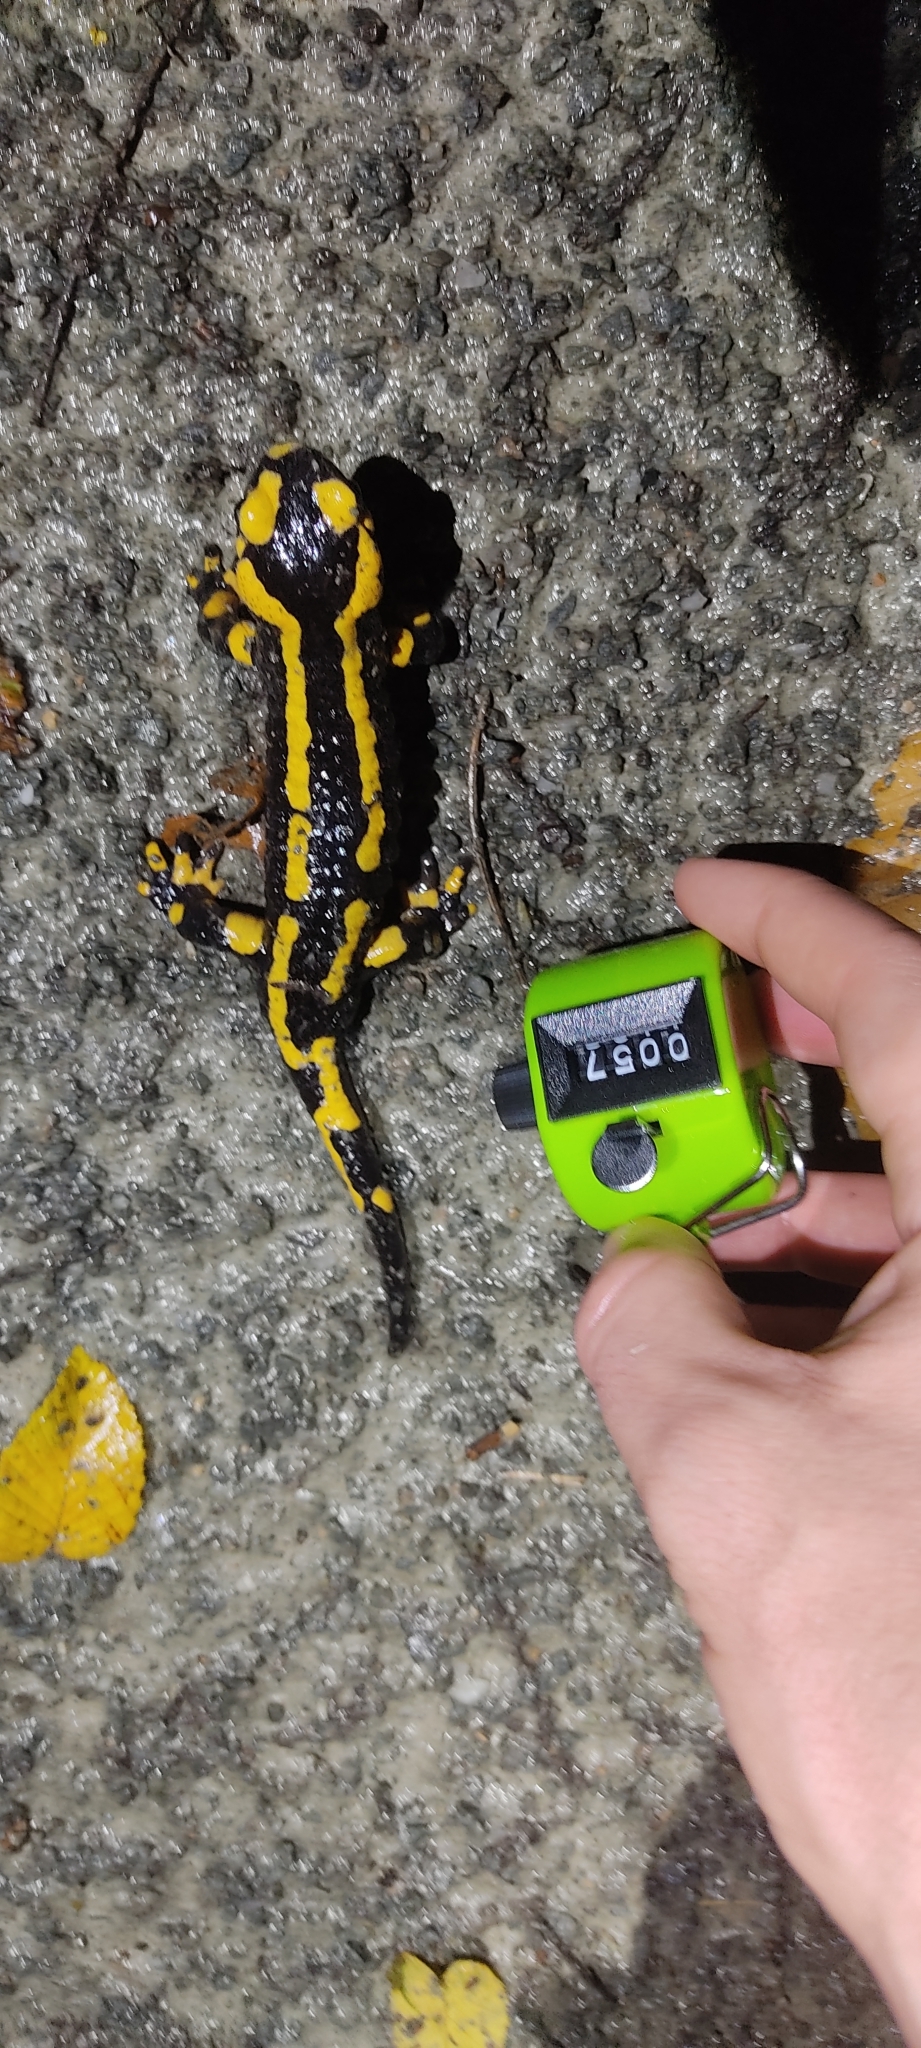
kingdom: Animalia
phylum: Chordata
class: Amphibia
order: Caudata
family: Salamandridae
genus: Salamandra
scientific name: Salamandra salamandra
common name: Fire salamander
